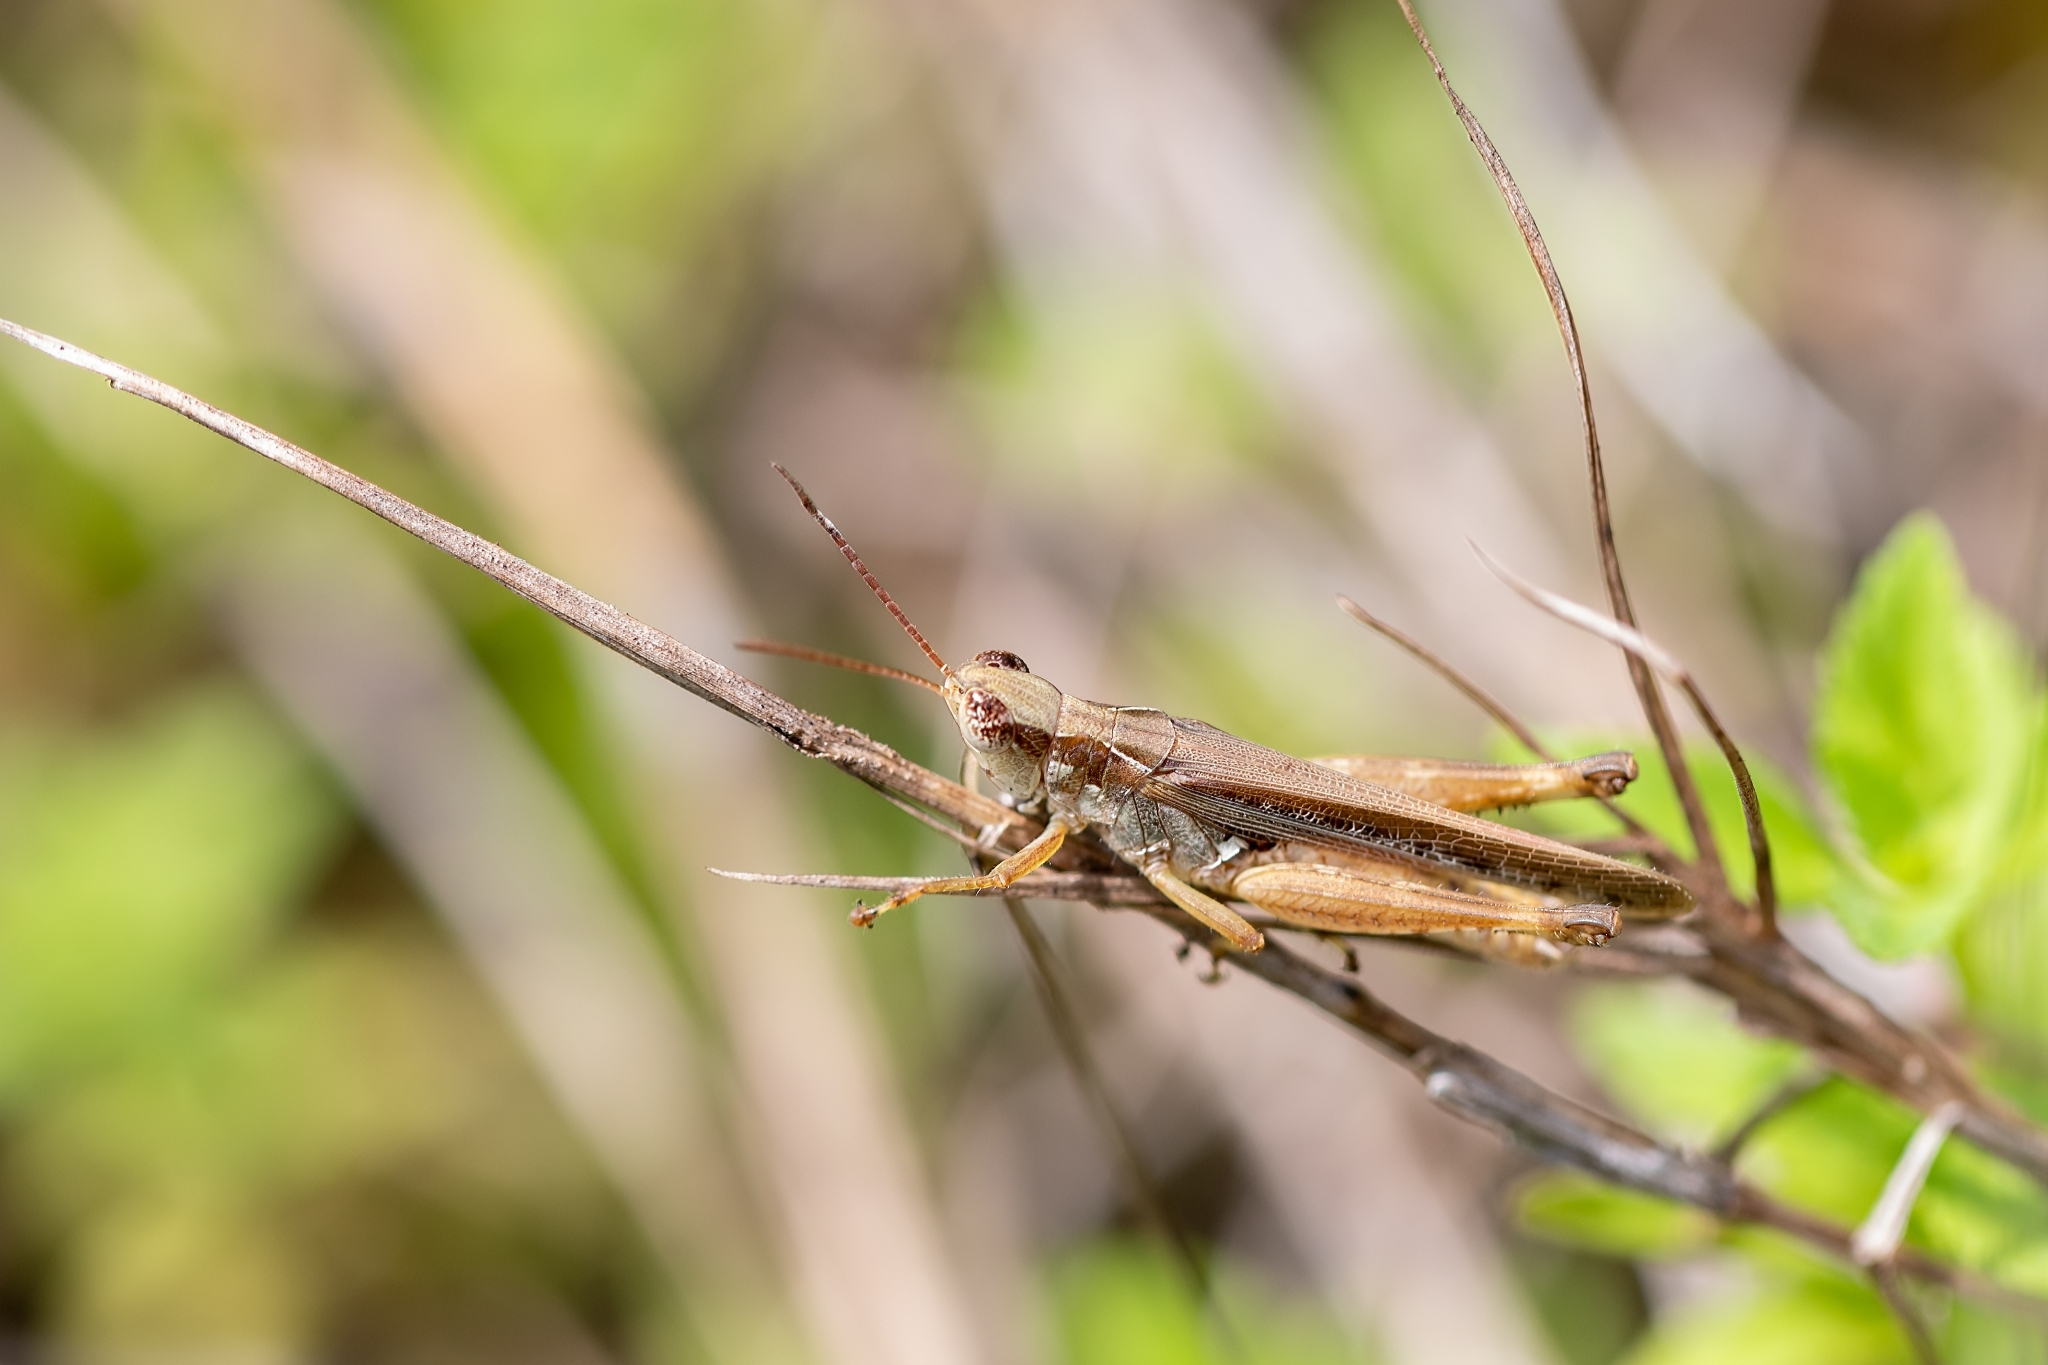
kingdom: Animalia
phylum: Arthropoda
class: Insecta
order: Orthoptera
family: Acrididae
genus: Orphulella
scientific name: Orphulella pelidna
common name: Spotted-wing grasshopper
